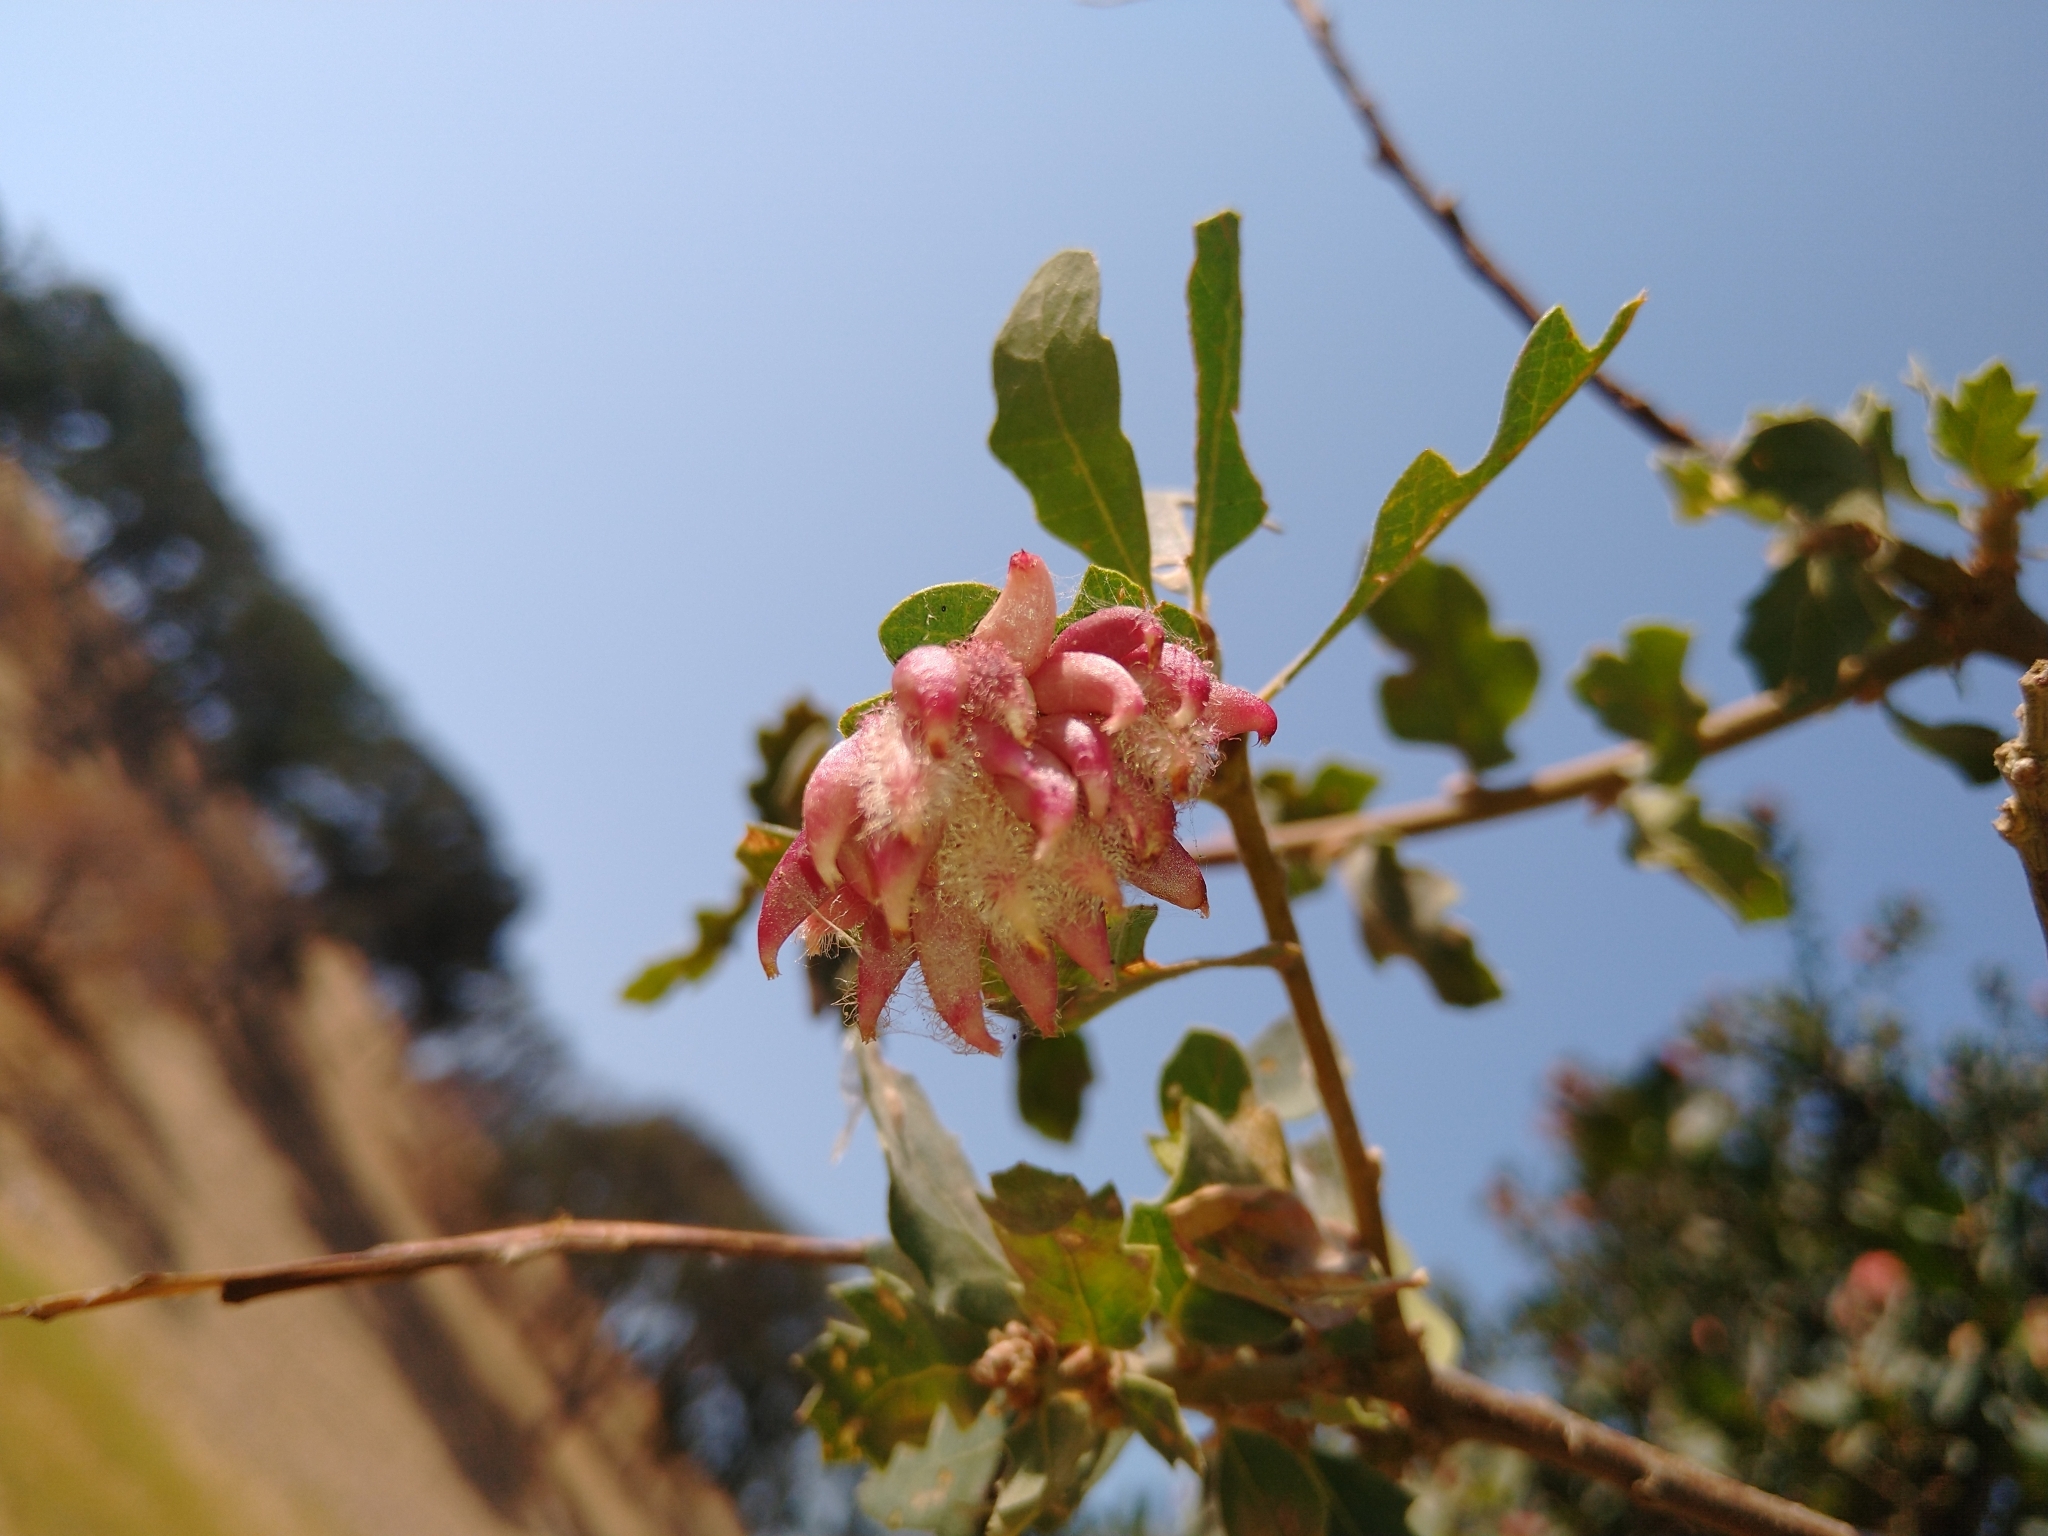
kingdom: Animalia
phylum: Arthropoda
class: Insecta
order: Hymenoptera
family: Cynipidae
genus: Andricus
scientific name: Andricus
